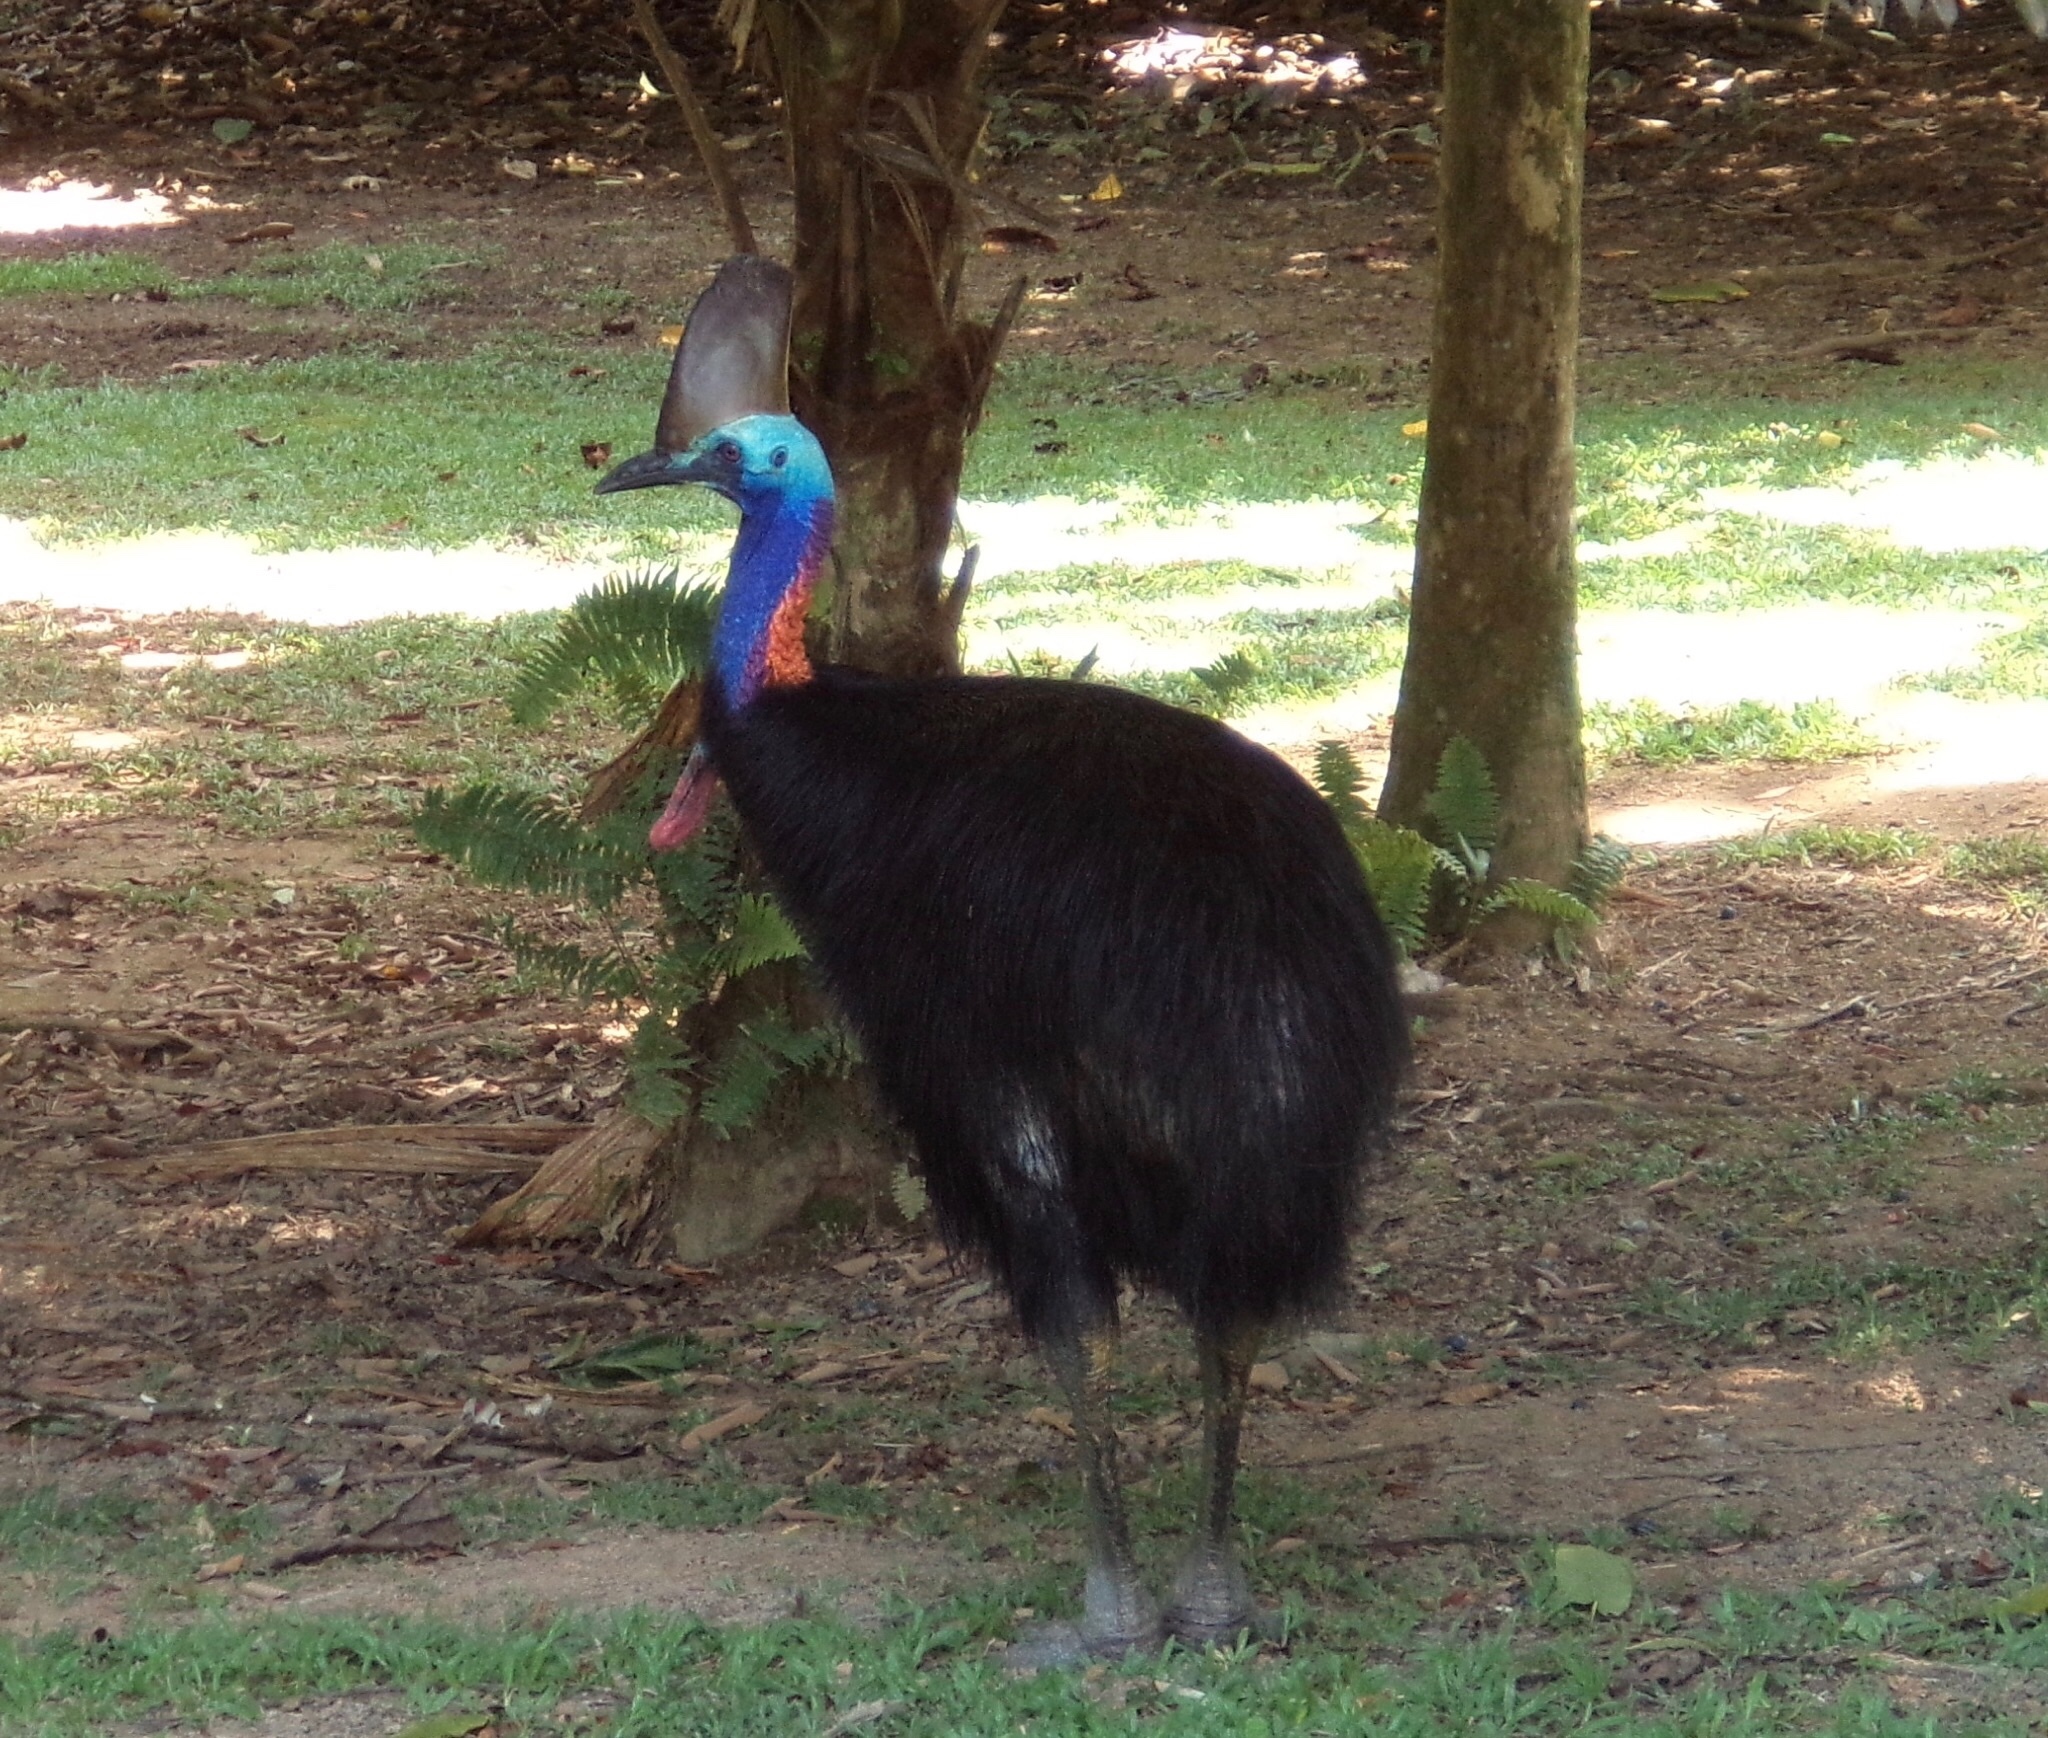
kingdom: Animalia
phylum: Chordata
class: Aves
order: Casuariiformes
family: Casuariidae
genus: Casuarius
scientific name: Casuarius casuarius
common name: Southern cassowary
